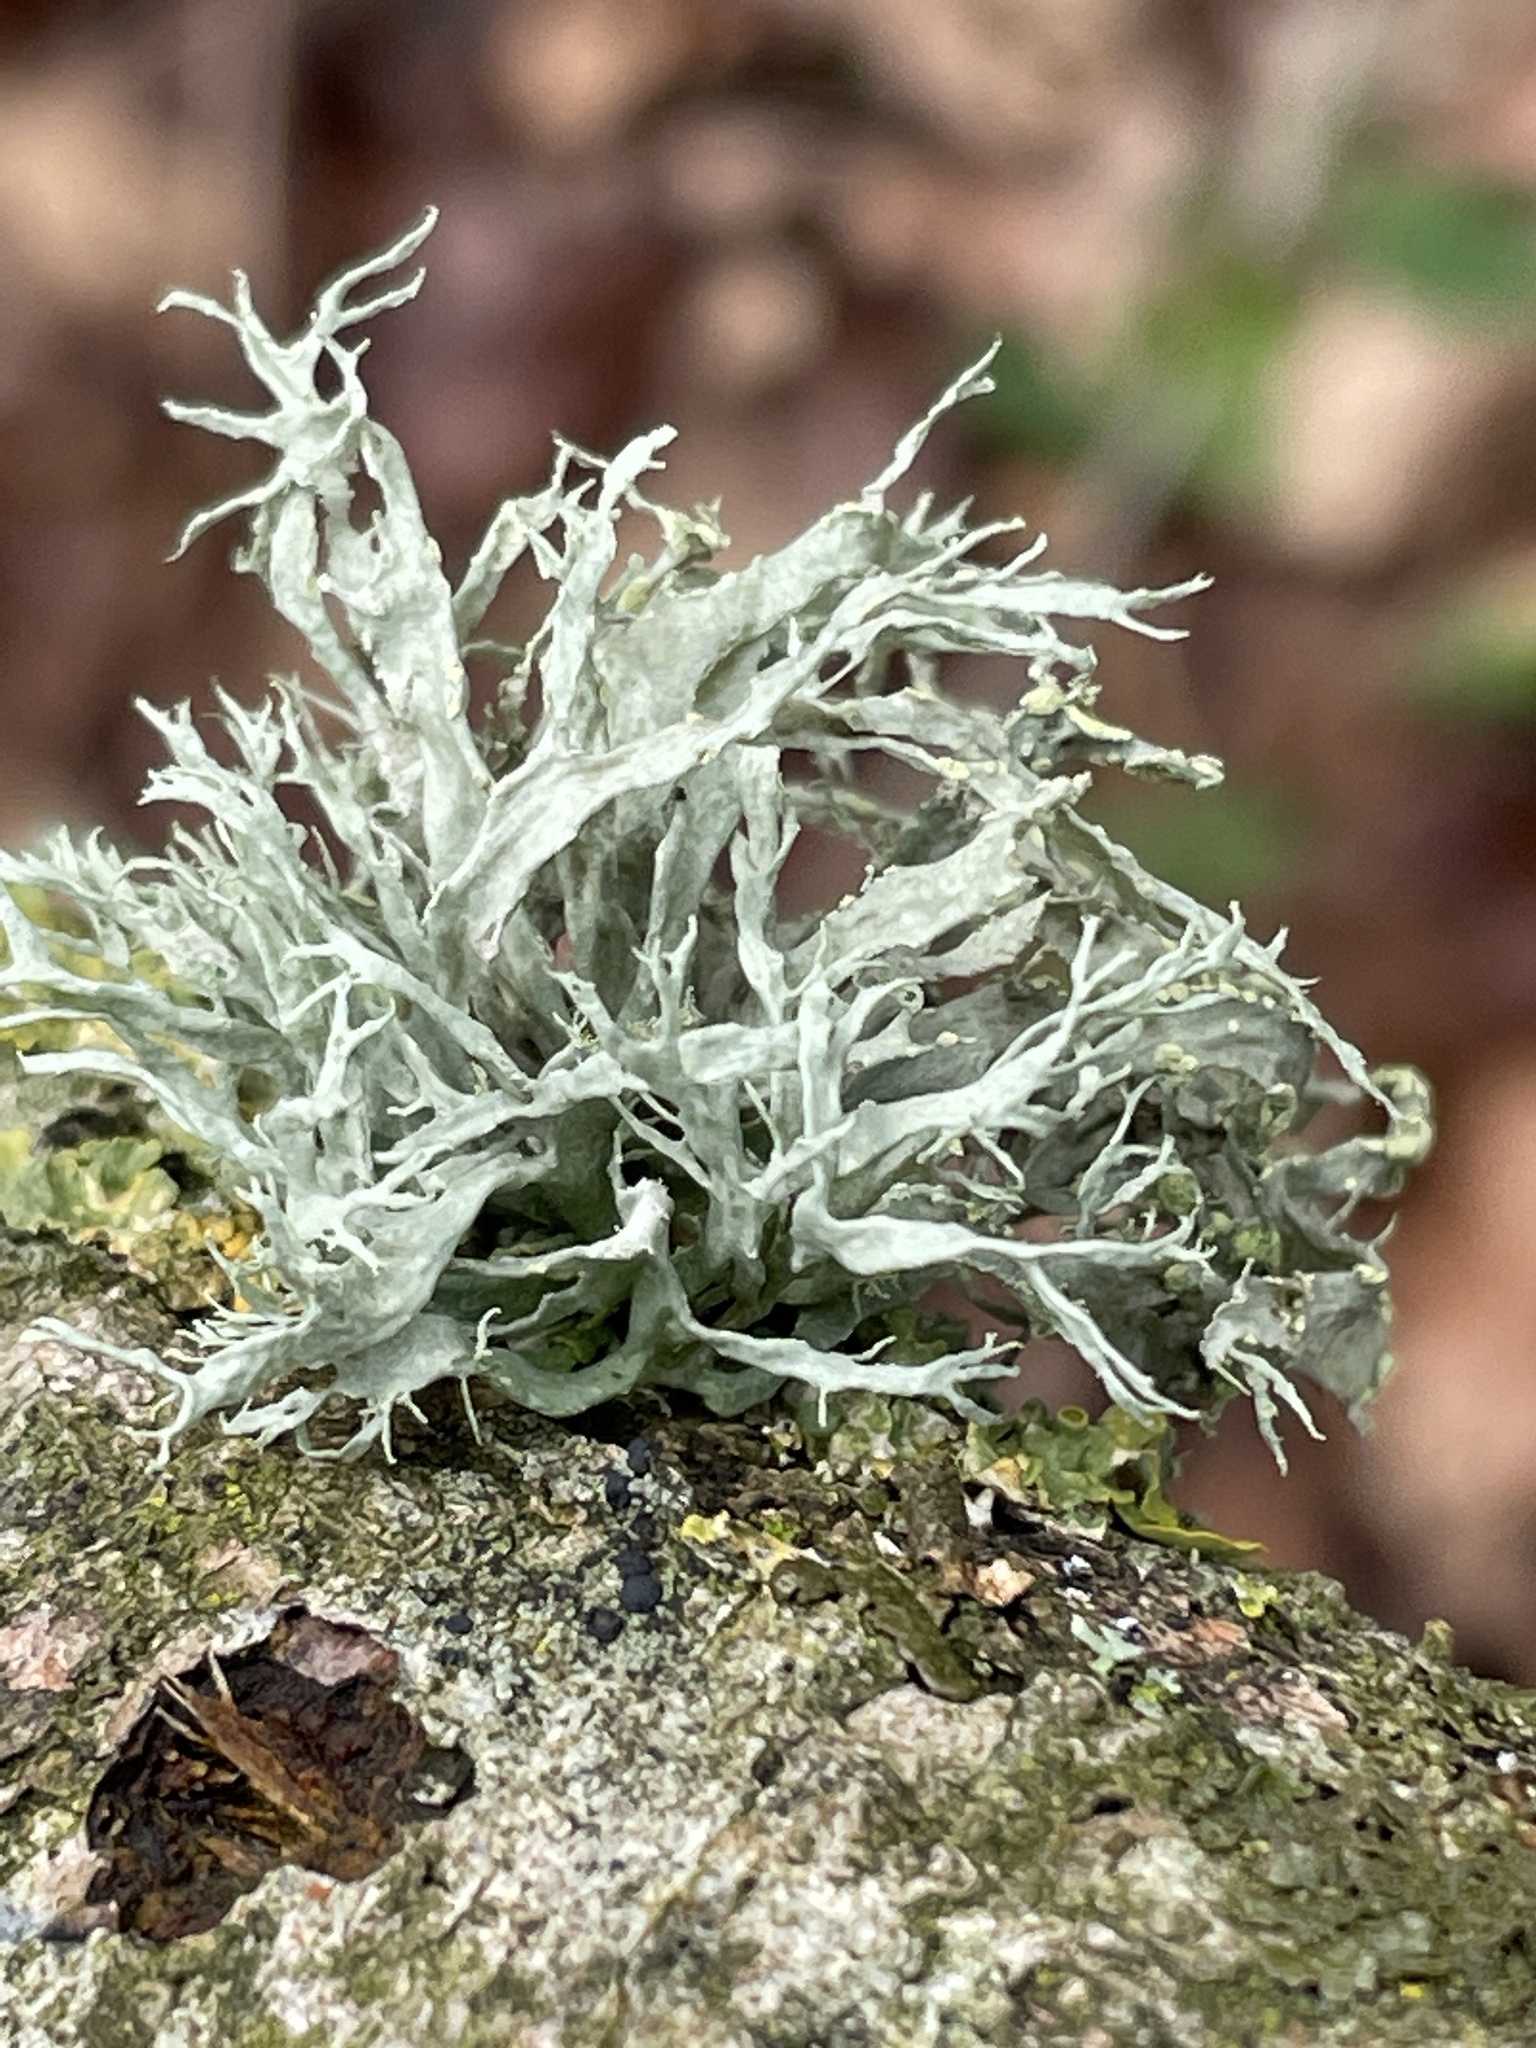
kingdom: Fungi
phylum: Ascomycota
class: Lecanoromycetes
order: Lecanorales
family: Ramalinaceae
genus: Ramalina
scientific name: Ramalina farinacea
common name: Farinose cartilage lichen
